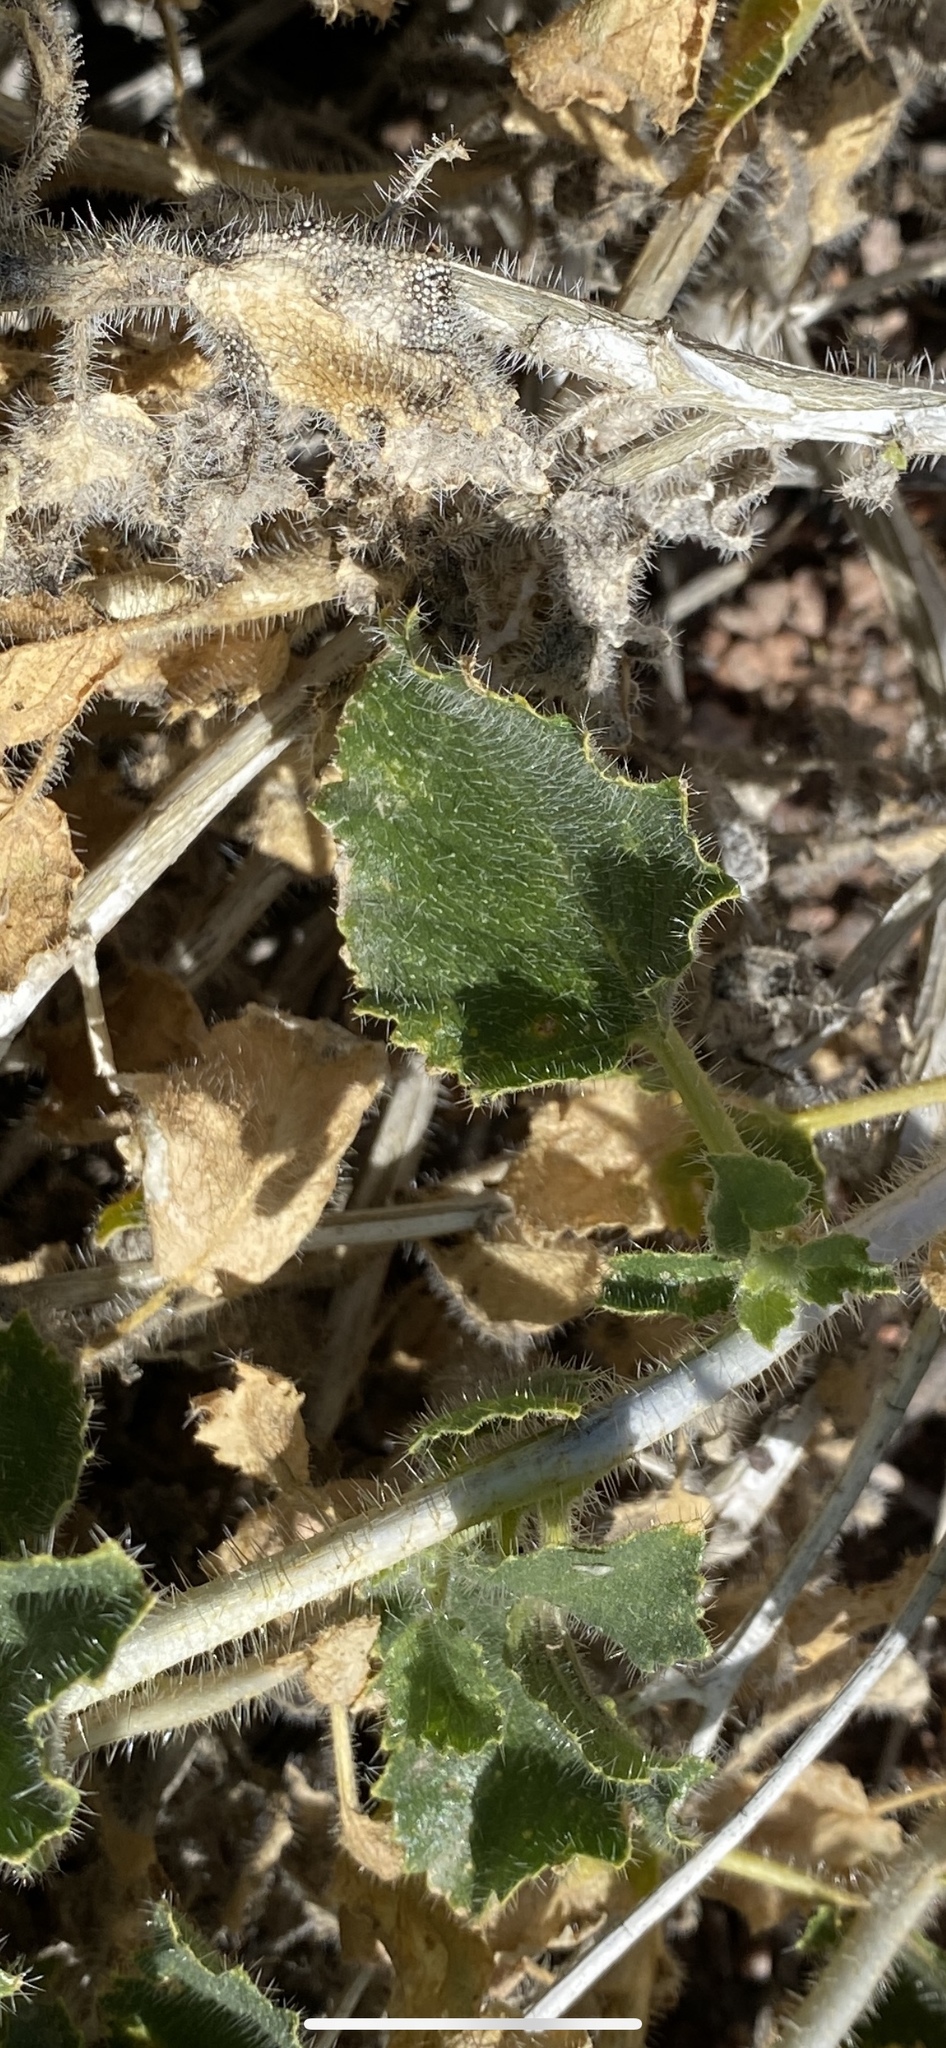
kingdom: Plantae
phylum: Tracheophyta
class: Magnoliopsida
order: Cornales
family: Loasaceae
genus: Eucnide
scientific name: Eucnide urens
